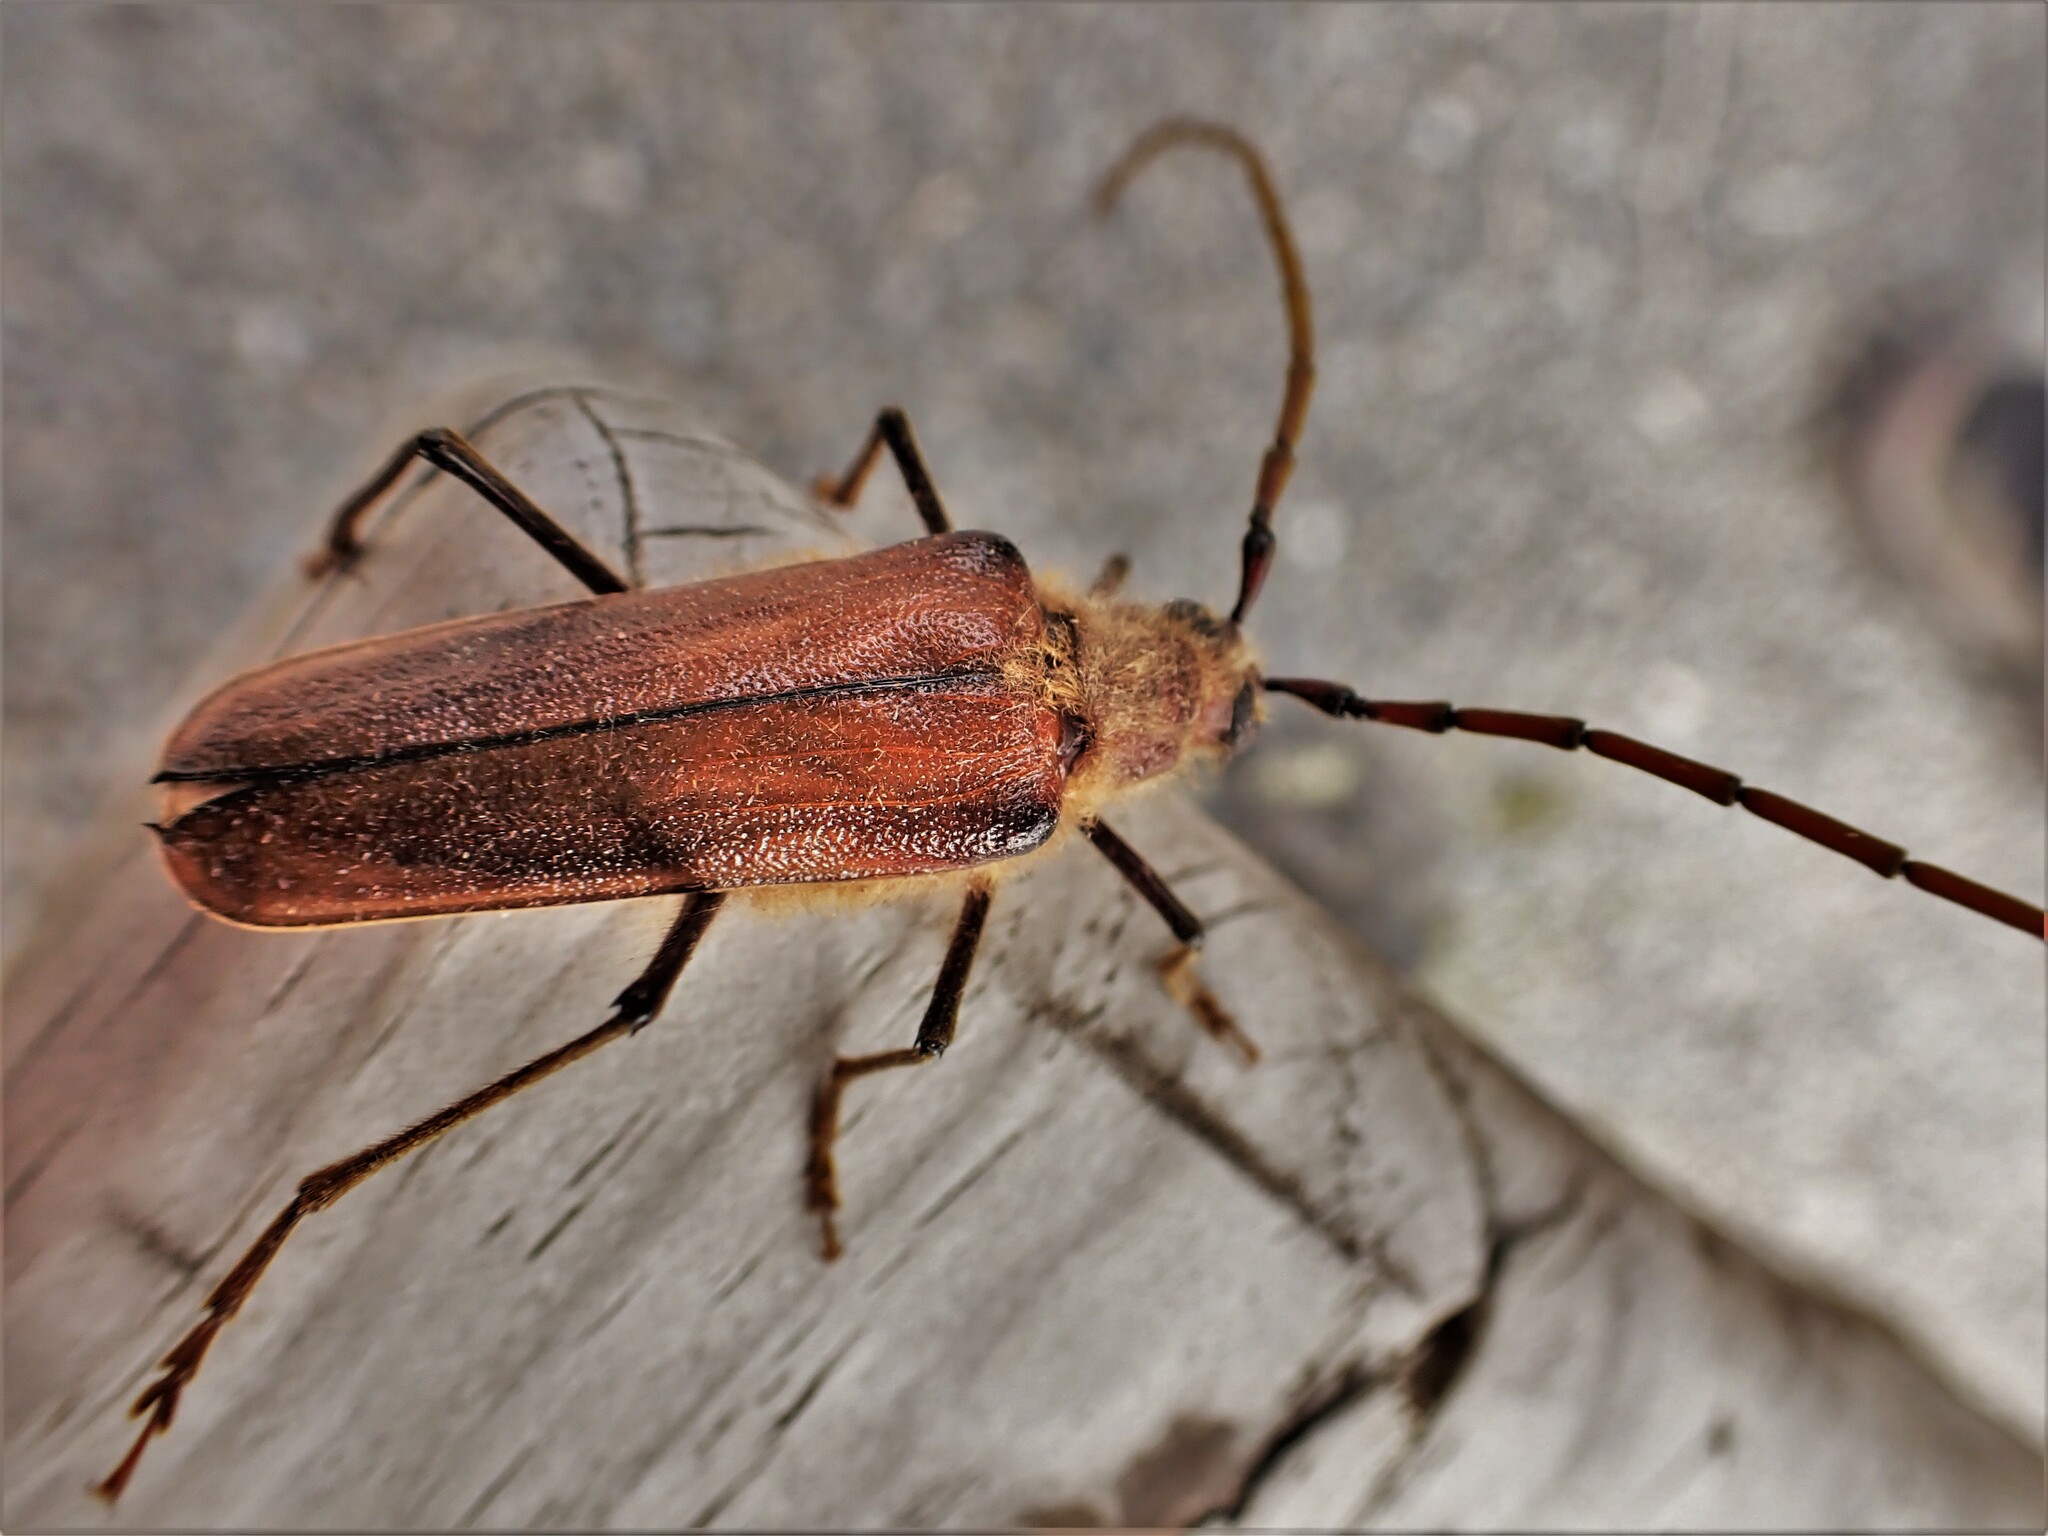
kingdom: Animalia
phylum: Arthropoda
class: Insecta
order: Coleoptera
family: Cerambycidae
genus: Ochrocydus
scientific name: Ochrocydus huttoni
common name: Kanuka longhorn
